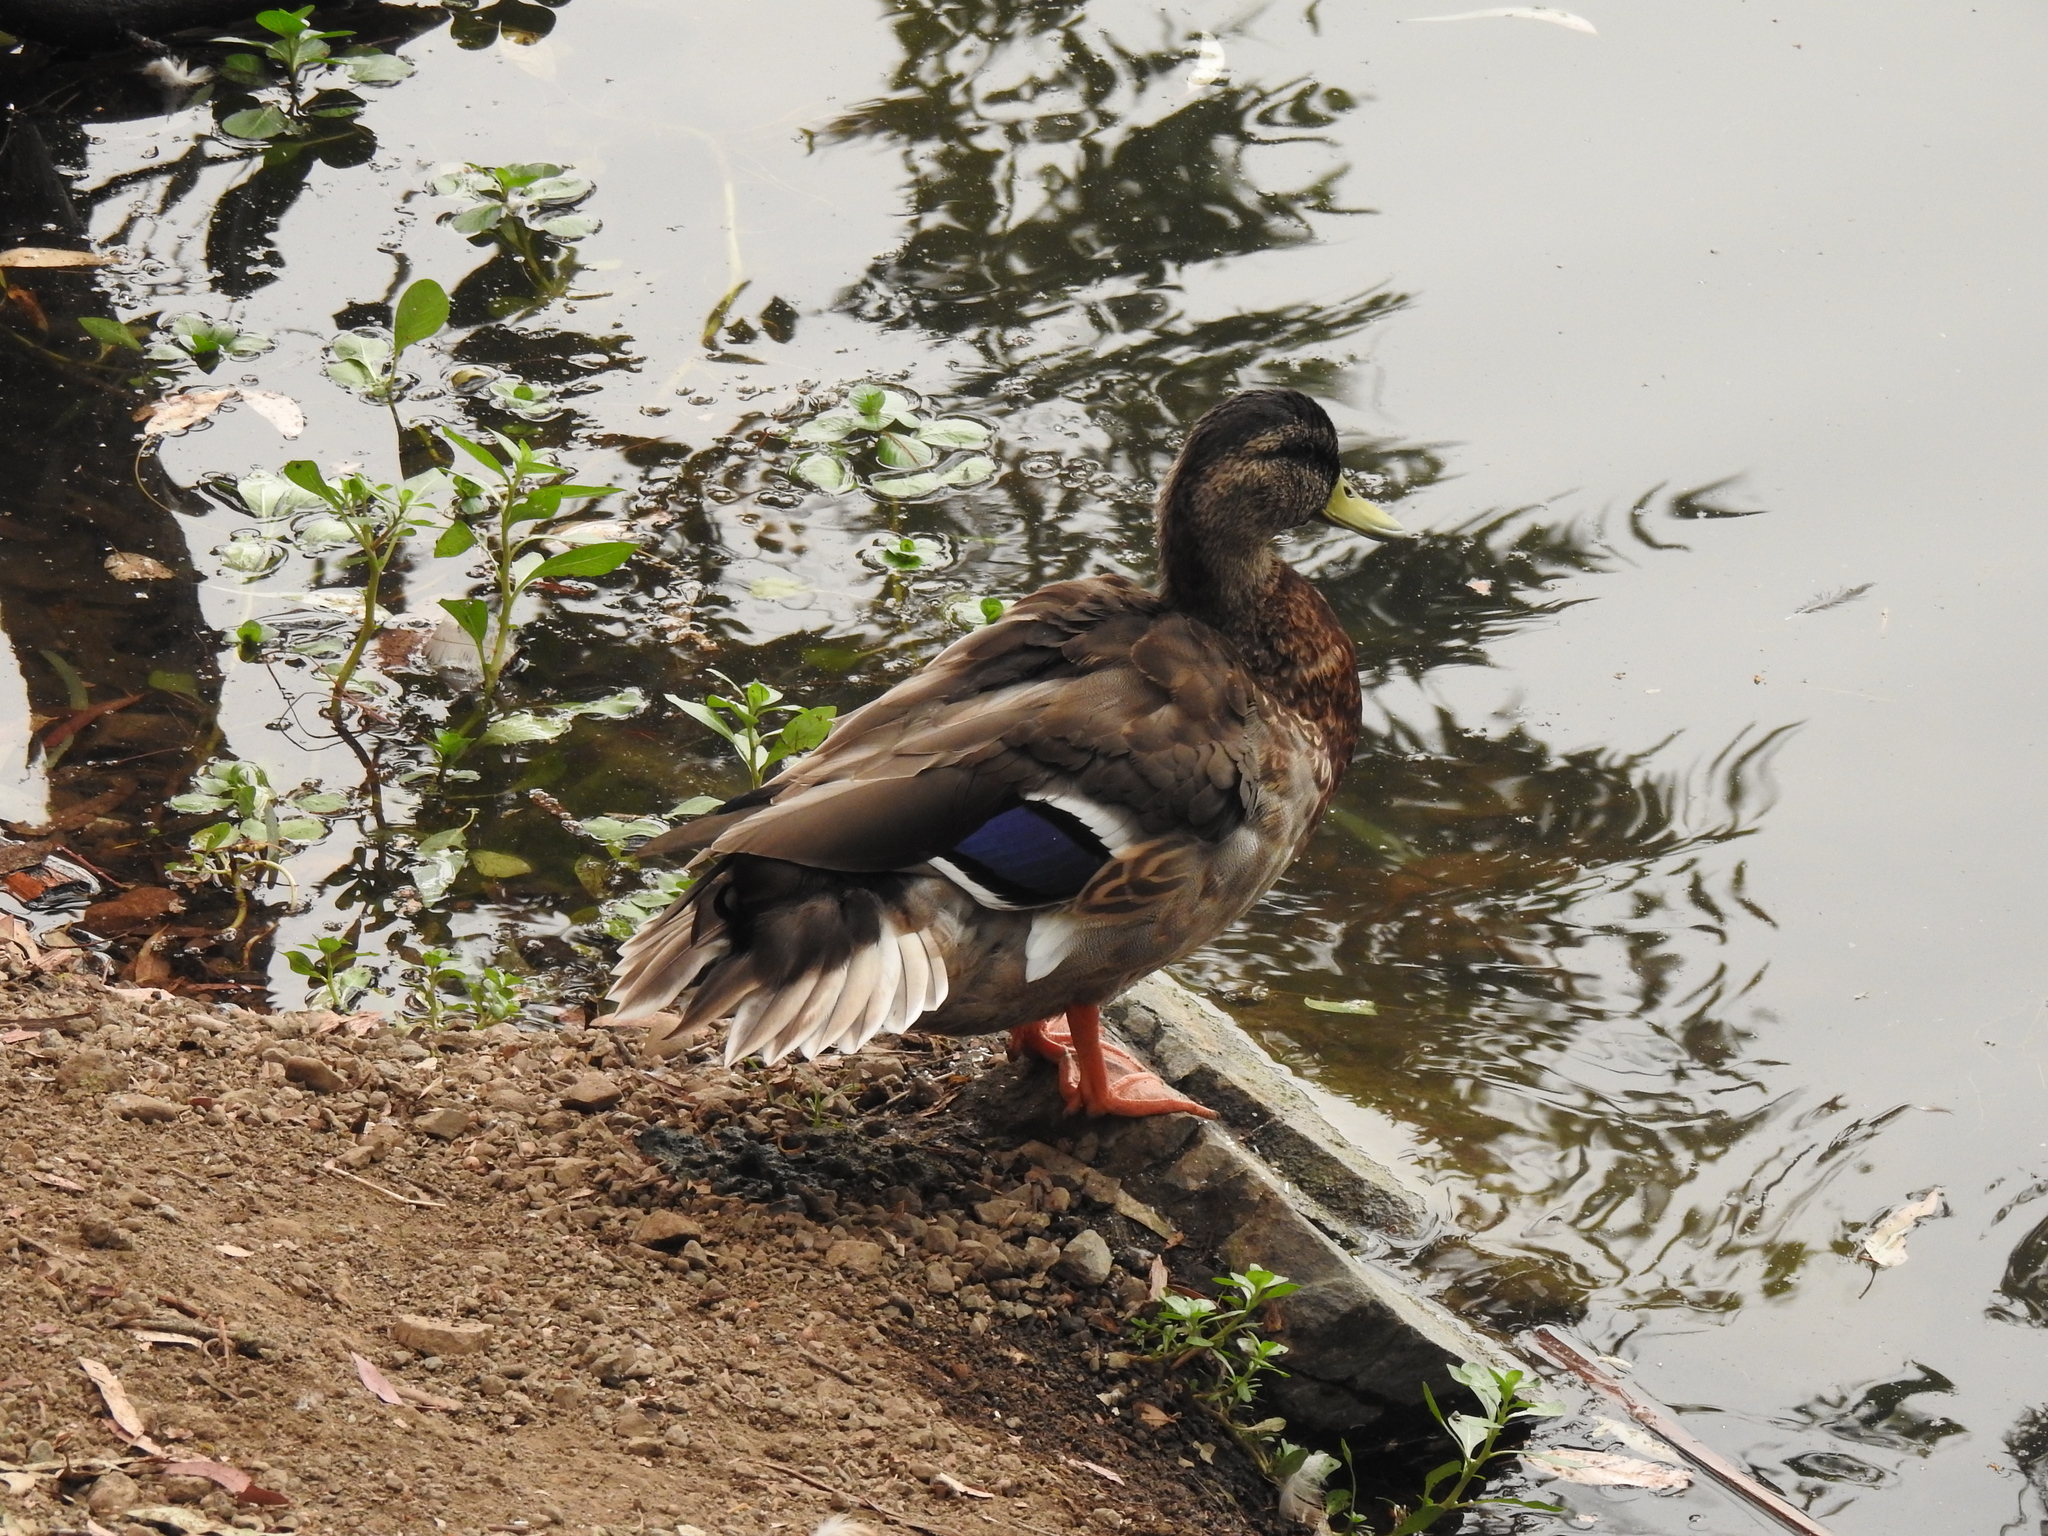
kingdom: Animalia
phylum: Chordata
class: Aves
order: Anseriformes
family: Anatidae
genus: Anas
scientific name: Anas platyrhynchos
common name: Mallard
